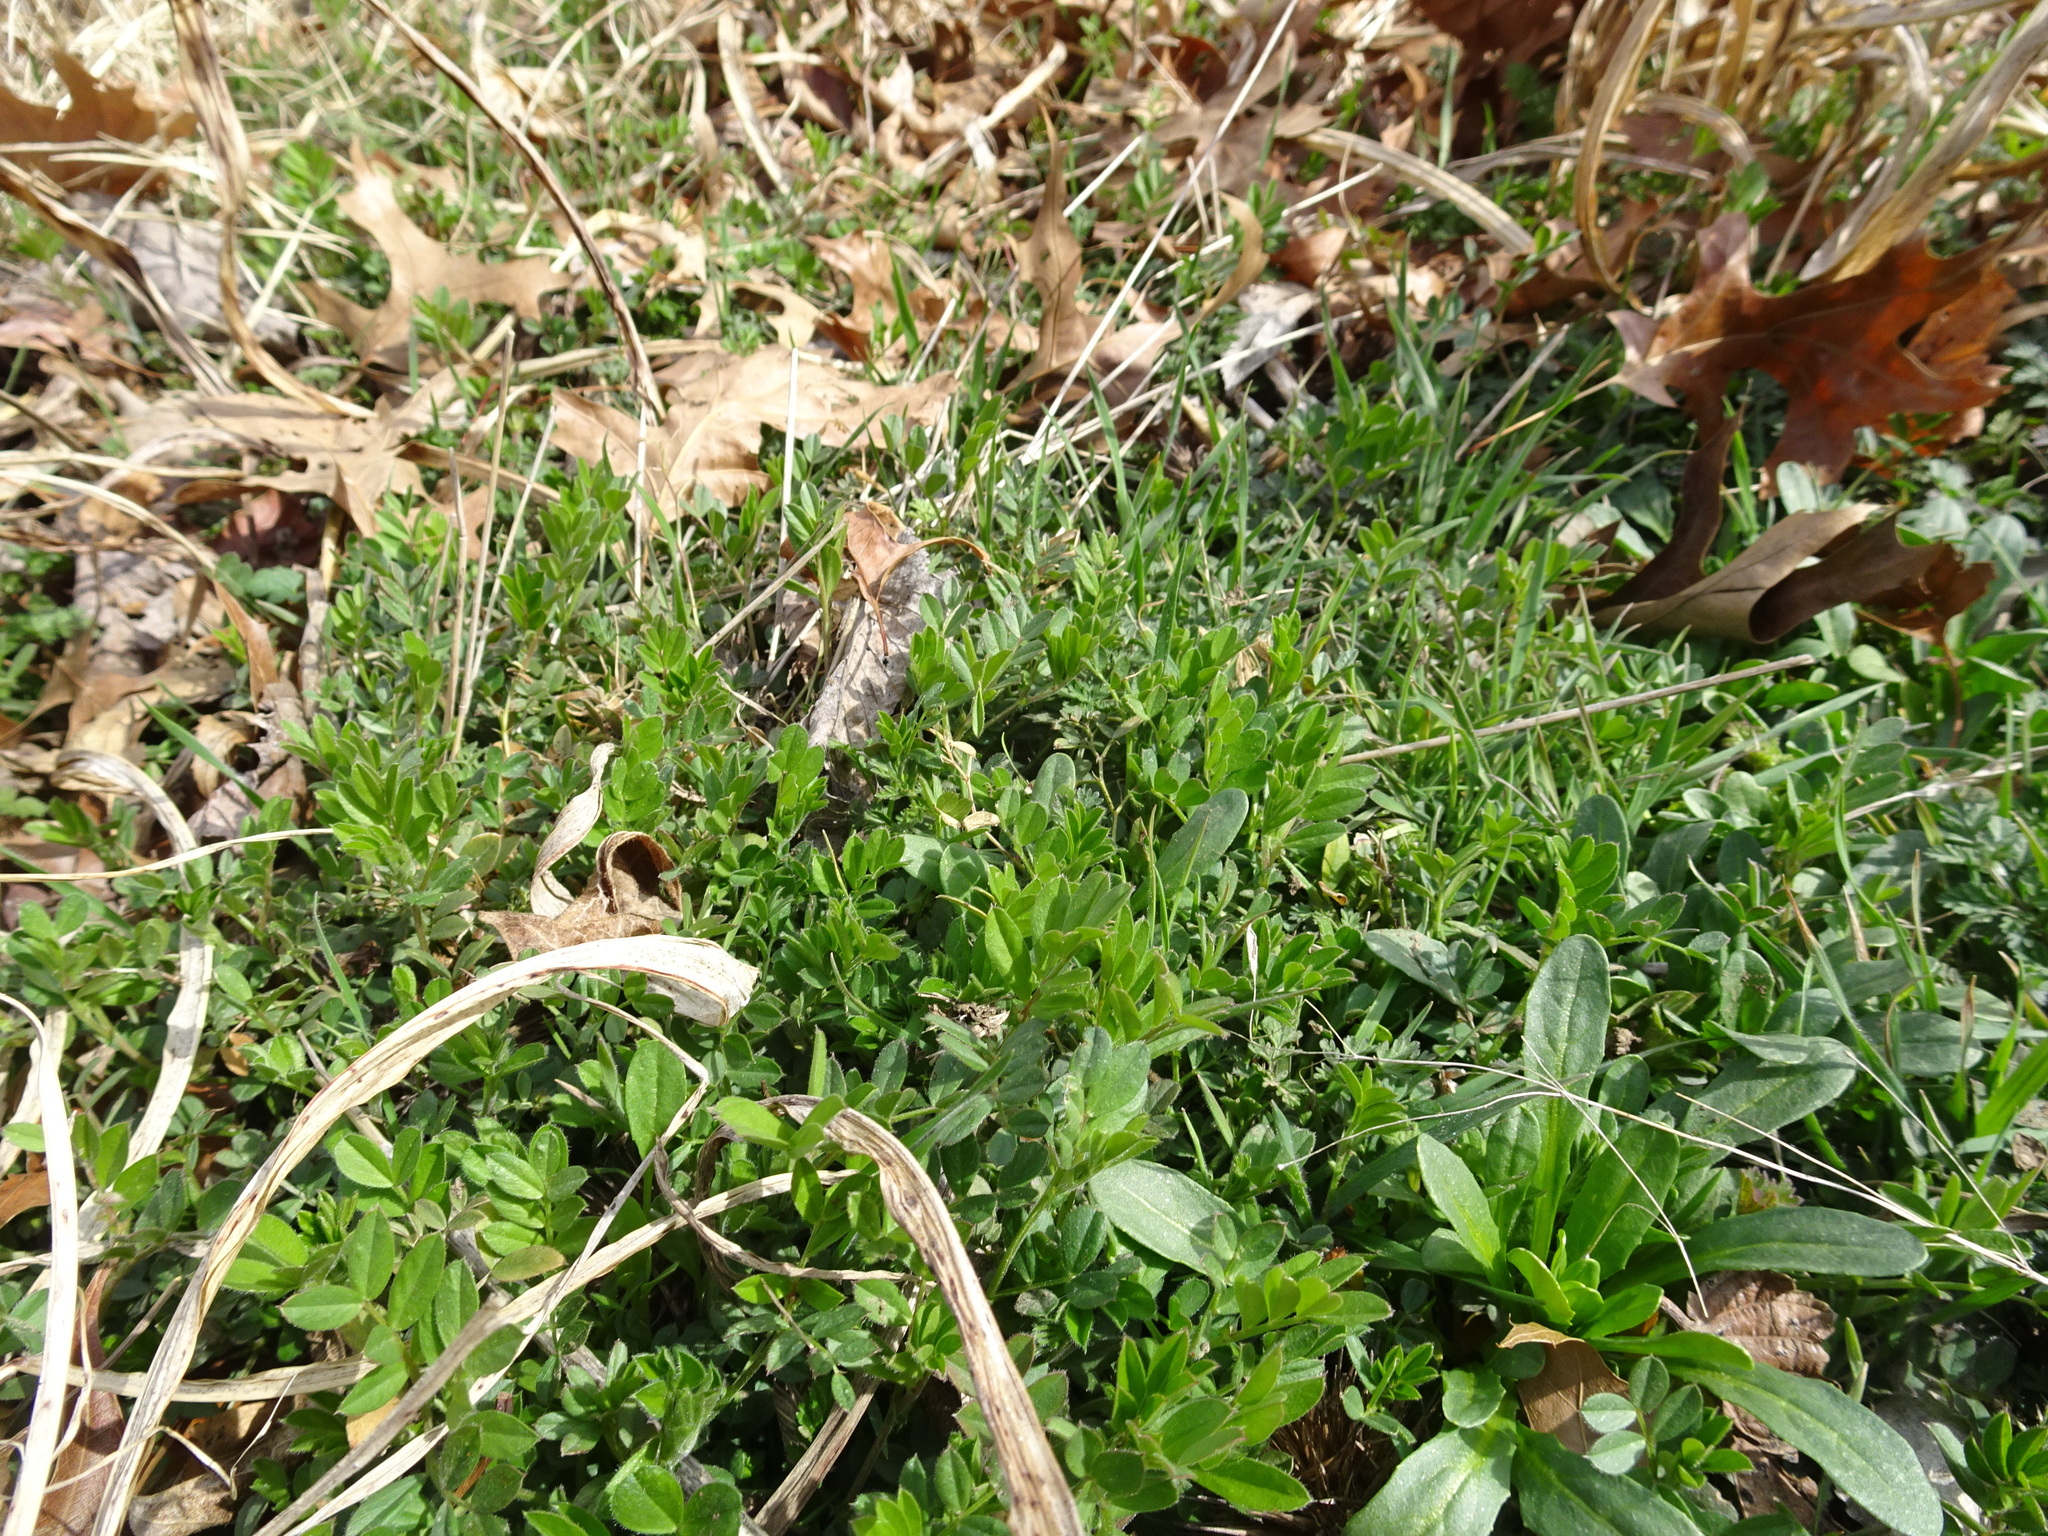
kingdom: Plantae
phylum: Tracheophyta
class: Magnoliopsida
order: Fabales
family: Fabaceae
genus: Coronilla
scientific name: Coronilla varia
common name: Crownvetch
